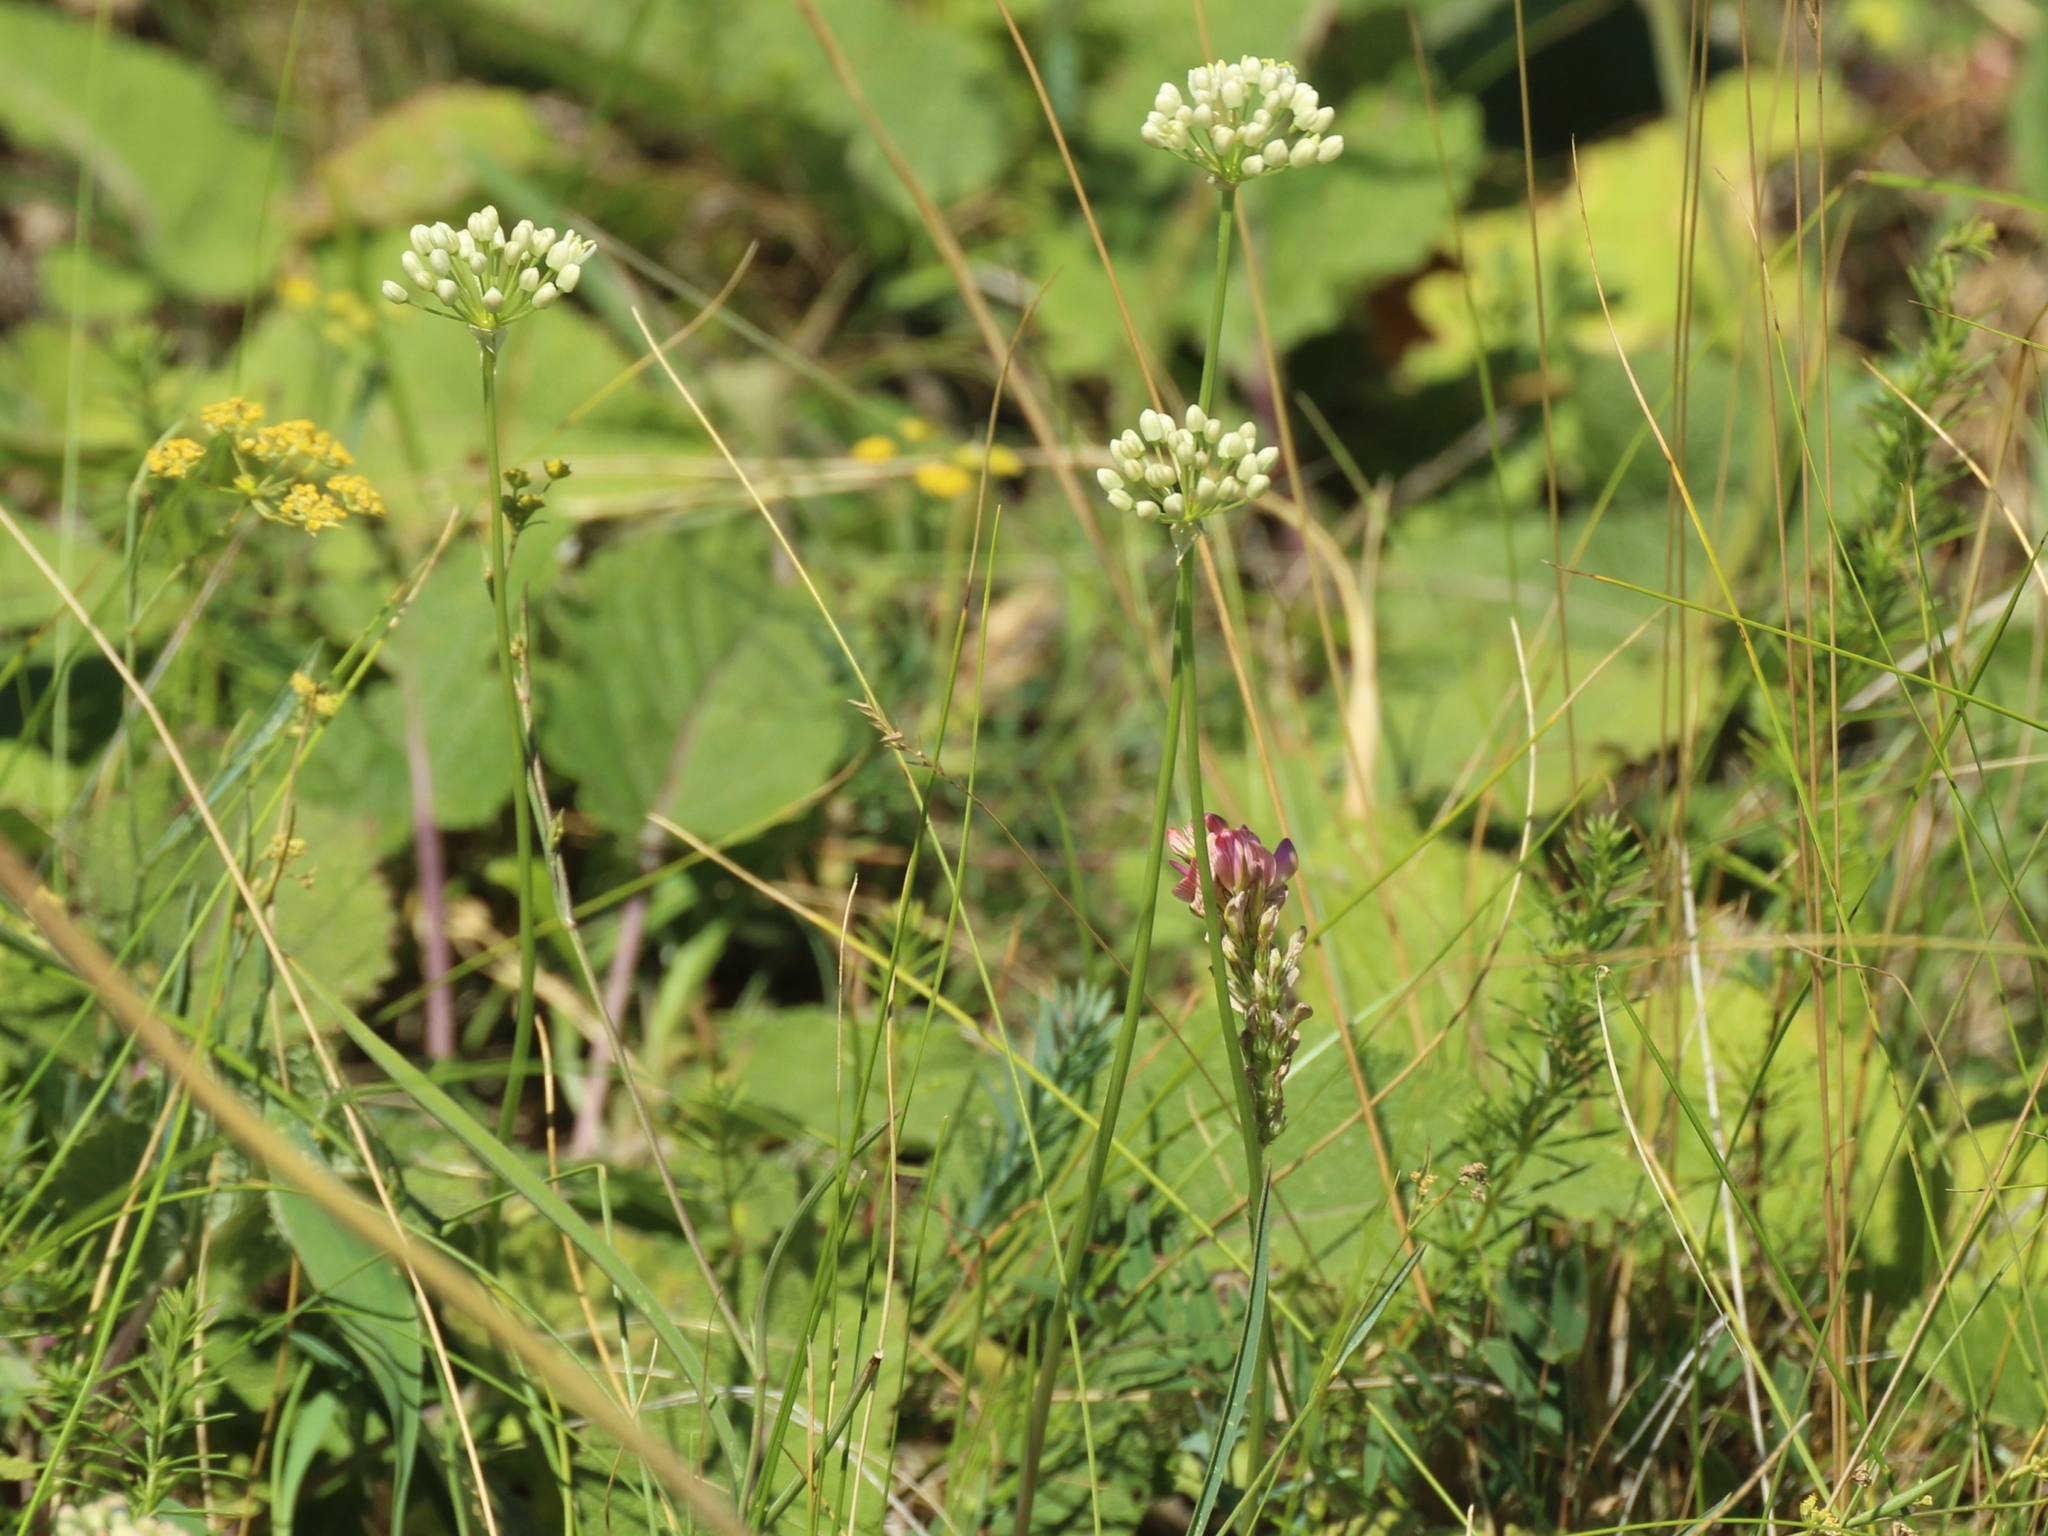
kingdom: Plantae
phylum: Tracheophyta
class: Liliopsida
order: Asparagales
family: Amaryllidaceae
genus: Allium
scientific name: Allium flavescens
